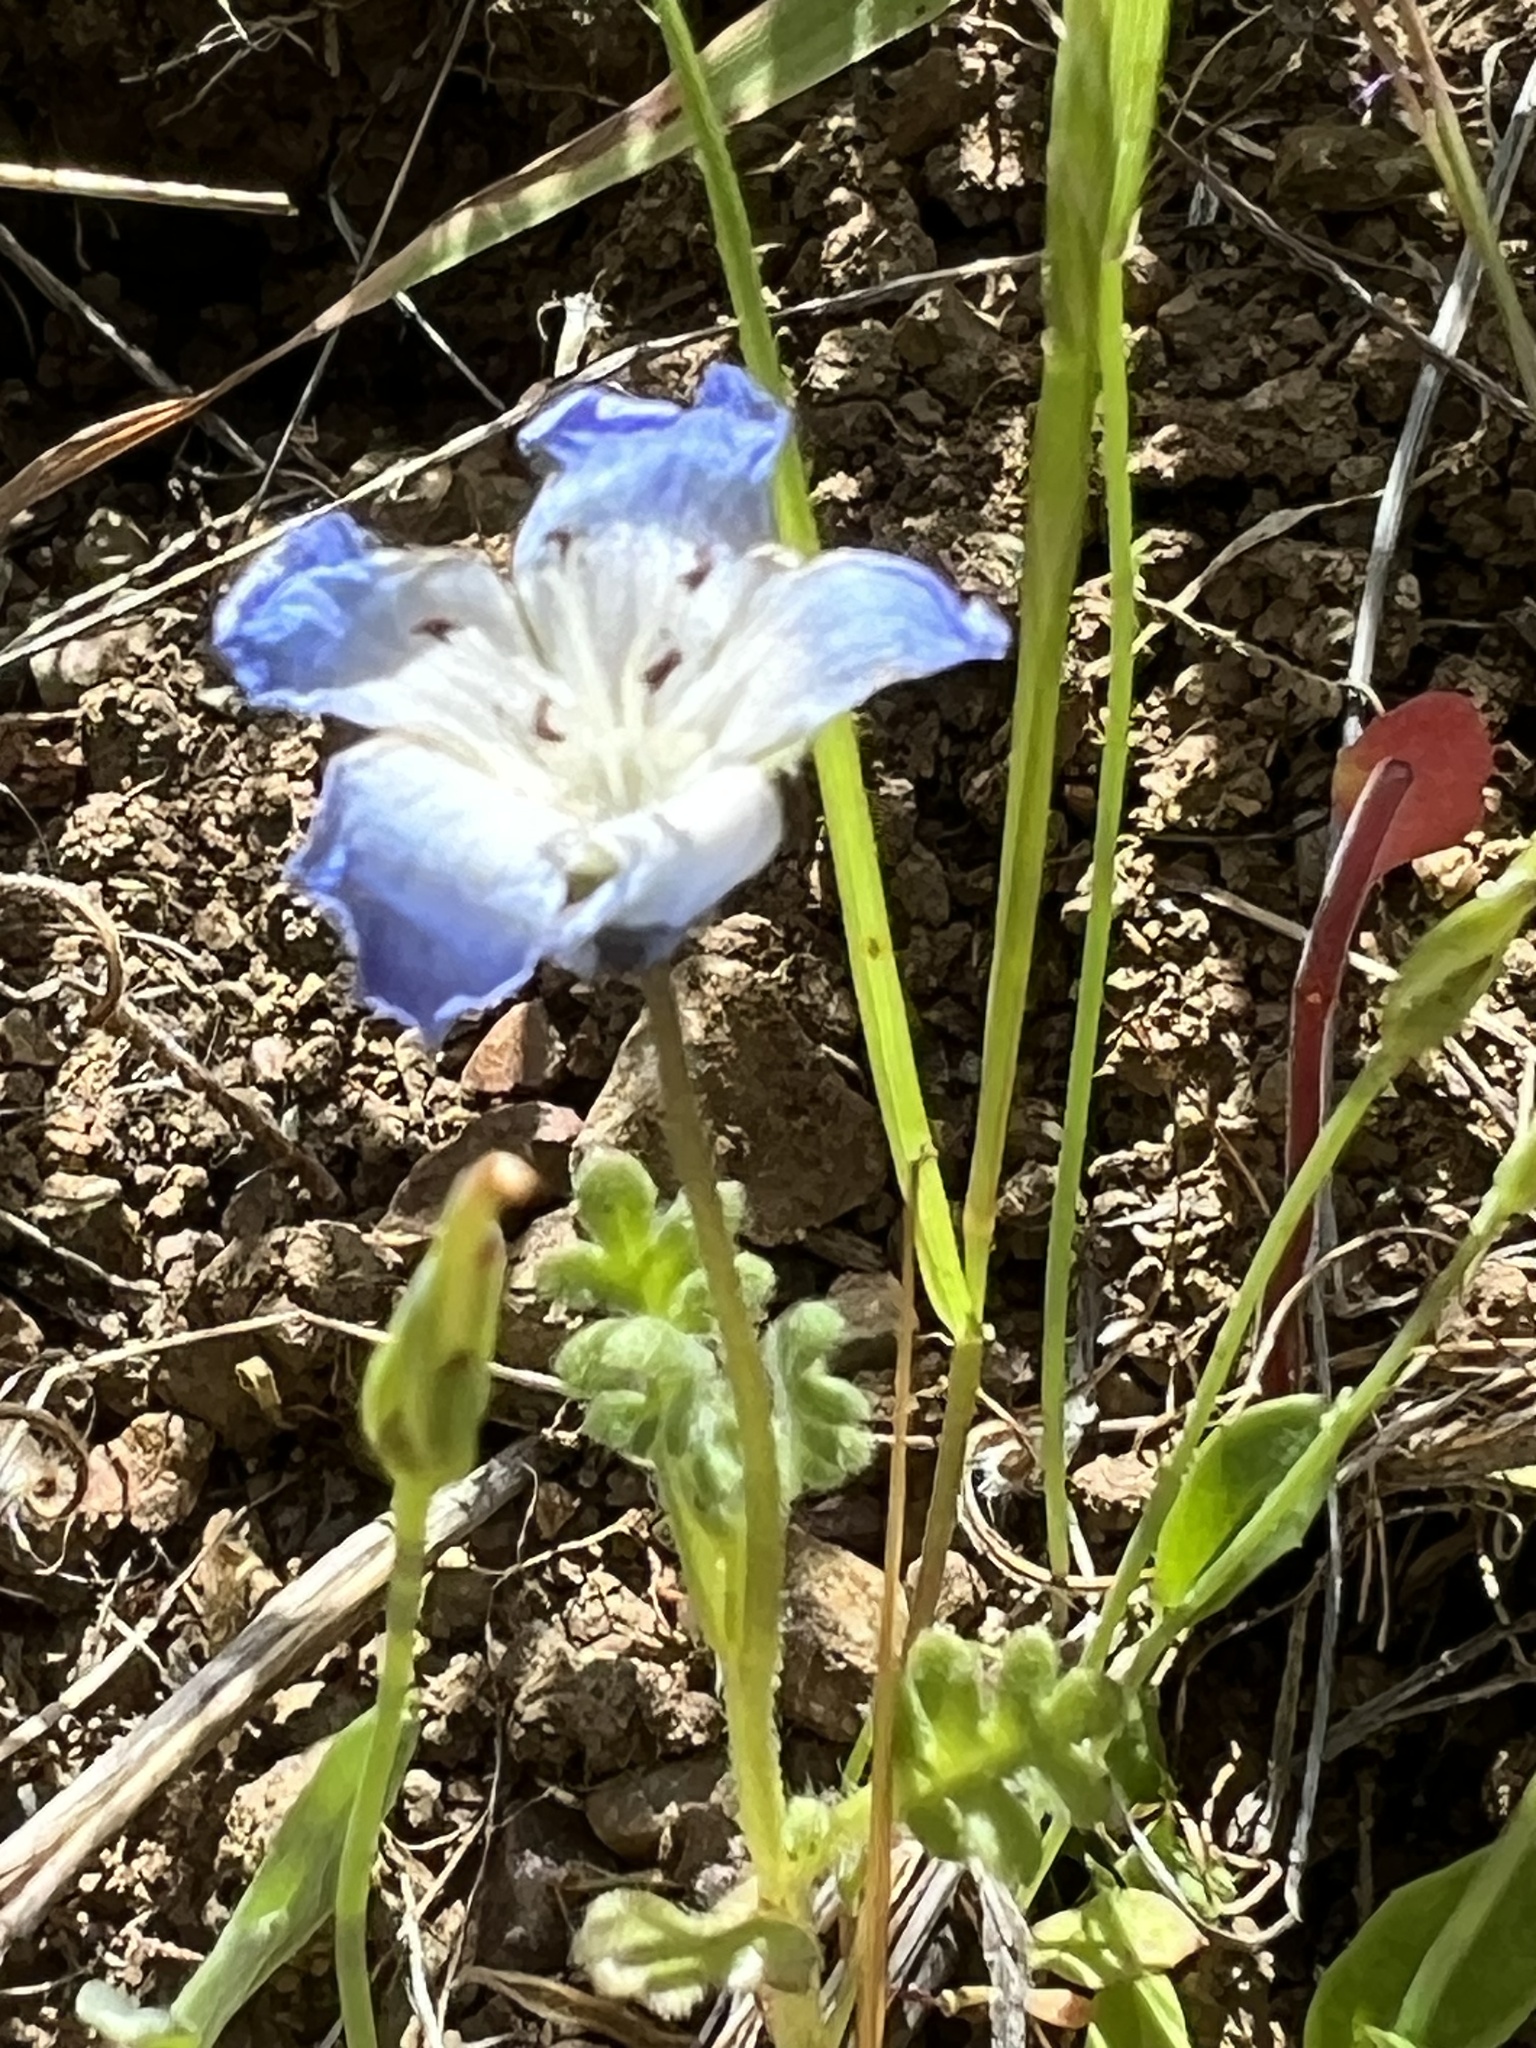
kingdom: Plantae
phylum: Tracheophyta
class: Magnoliopsida
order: Boraginales
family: Hydrophyllaceae
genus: Nemophila
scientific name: Nemophila menziesii
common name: Baby's-blue-eyes
